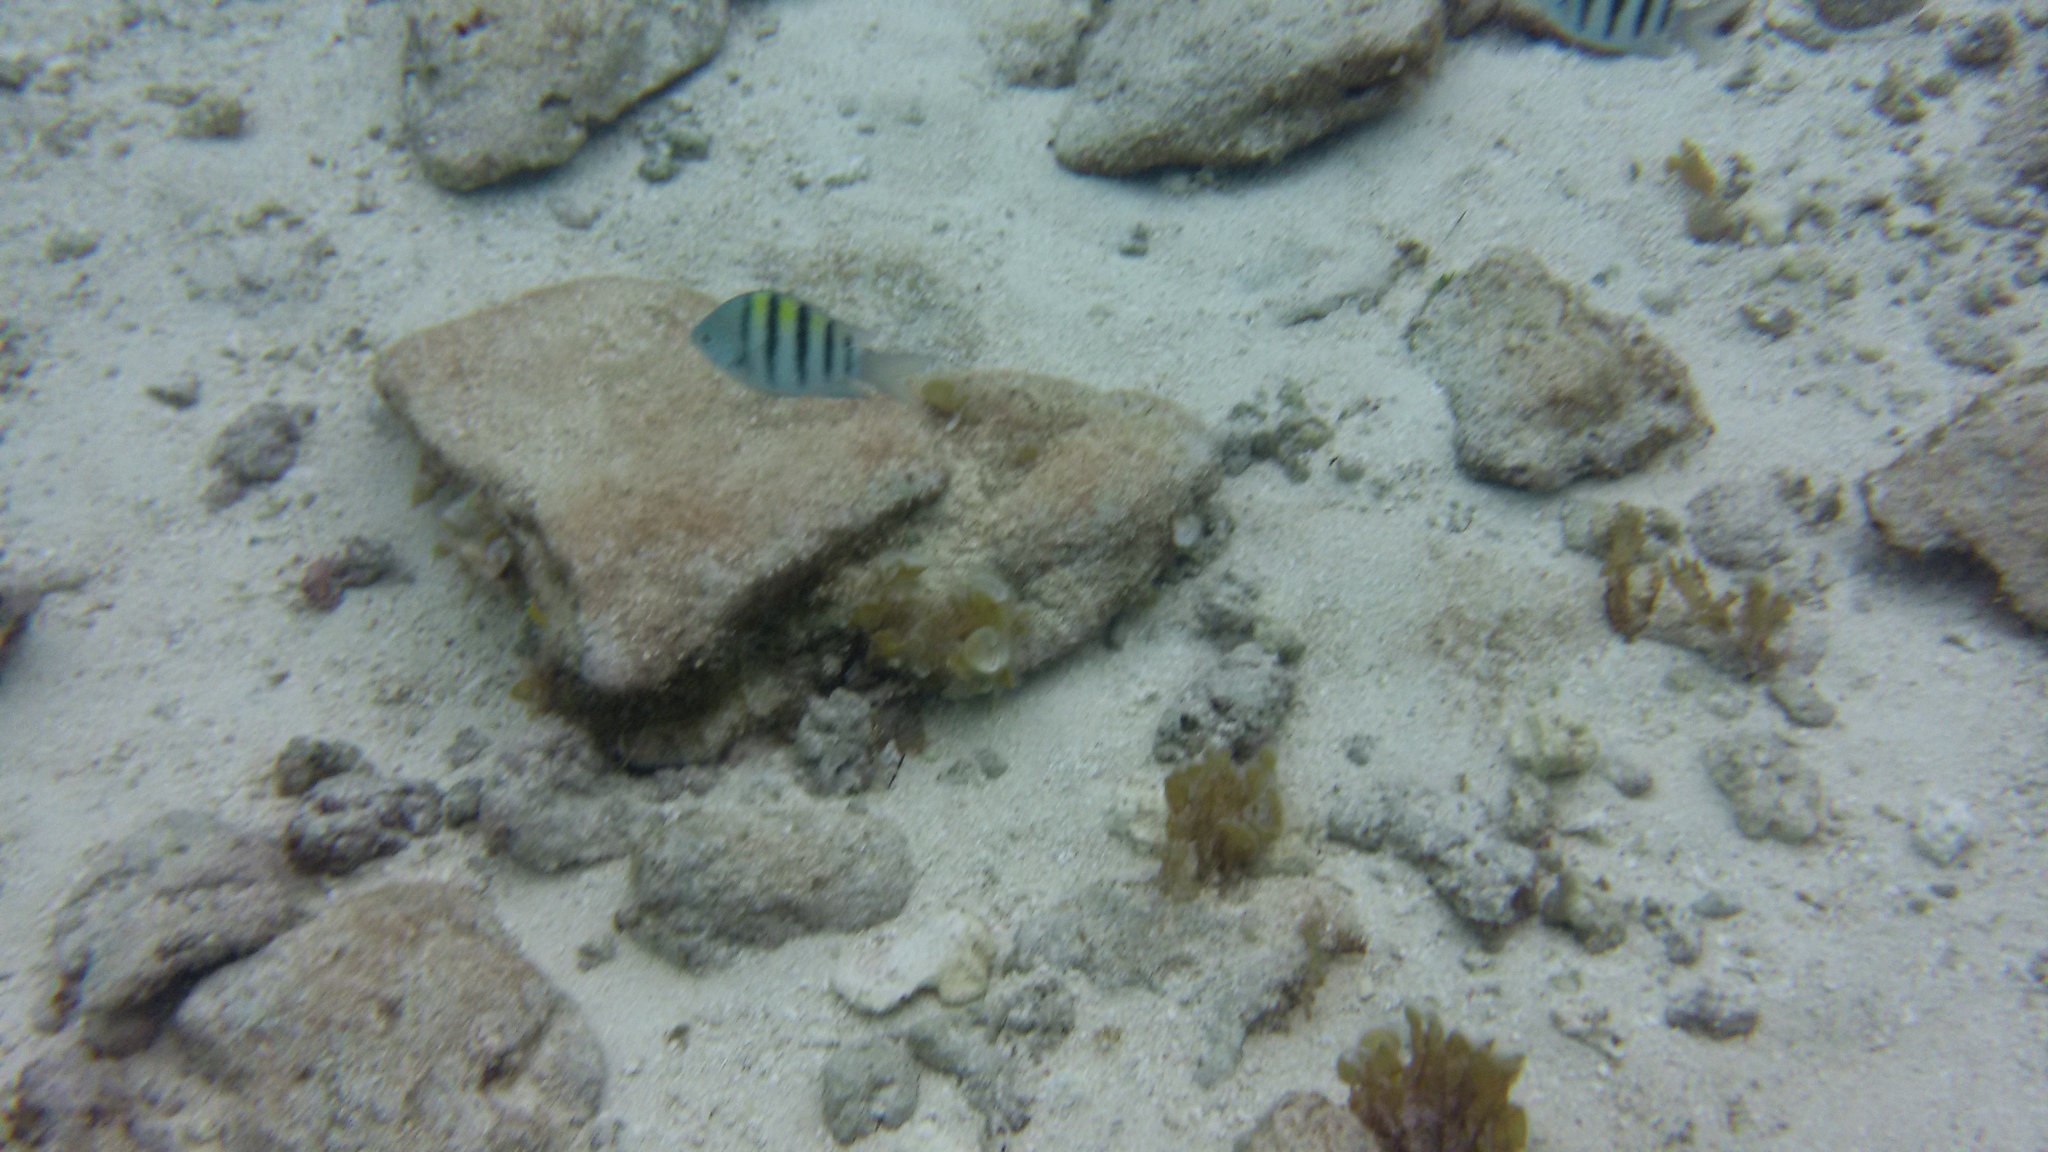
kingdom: Animalia
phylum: Chordata
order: Perciformes
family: Pomacentridae
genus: Abudefduf
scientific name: Abudefduf saxatilis
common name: Sergeant major
